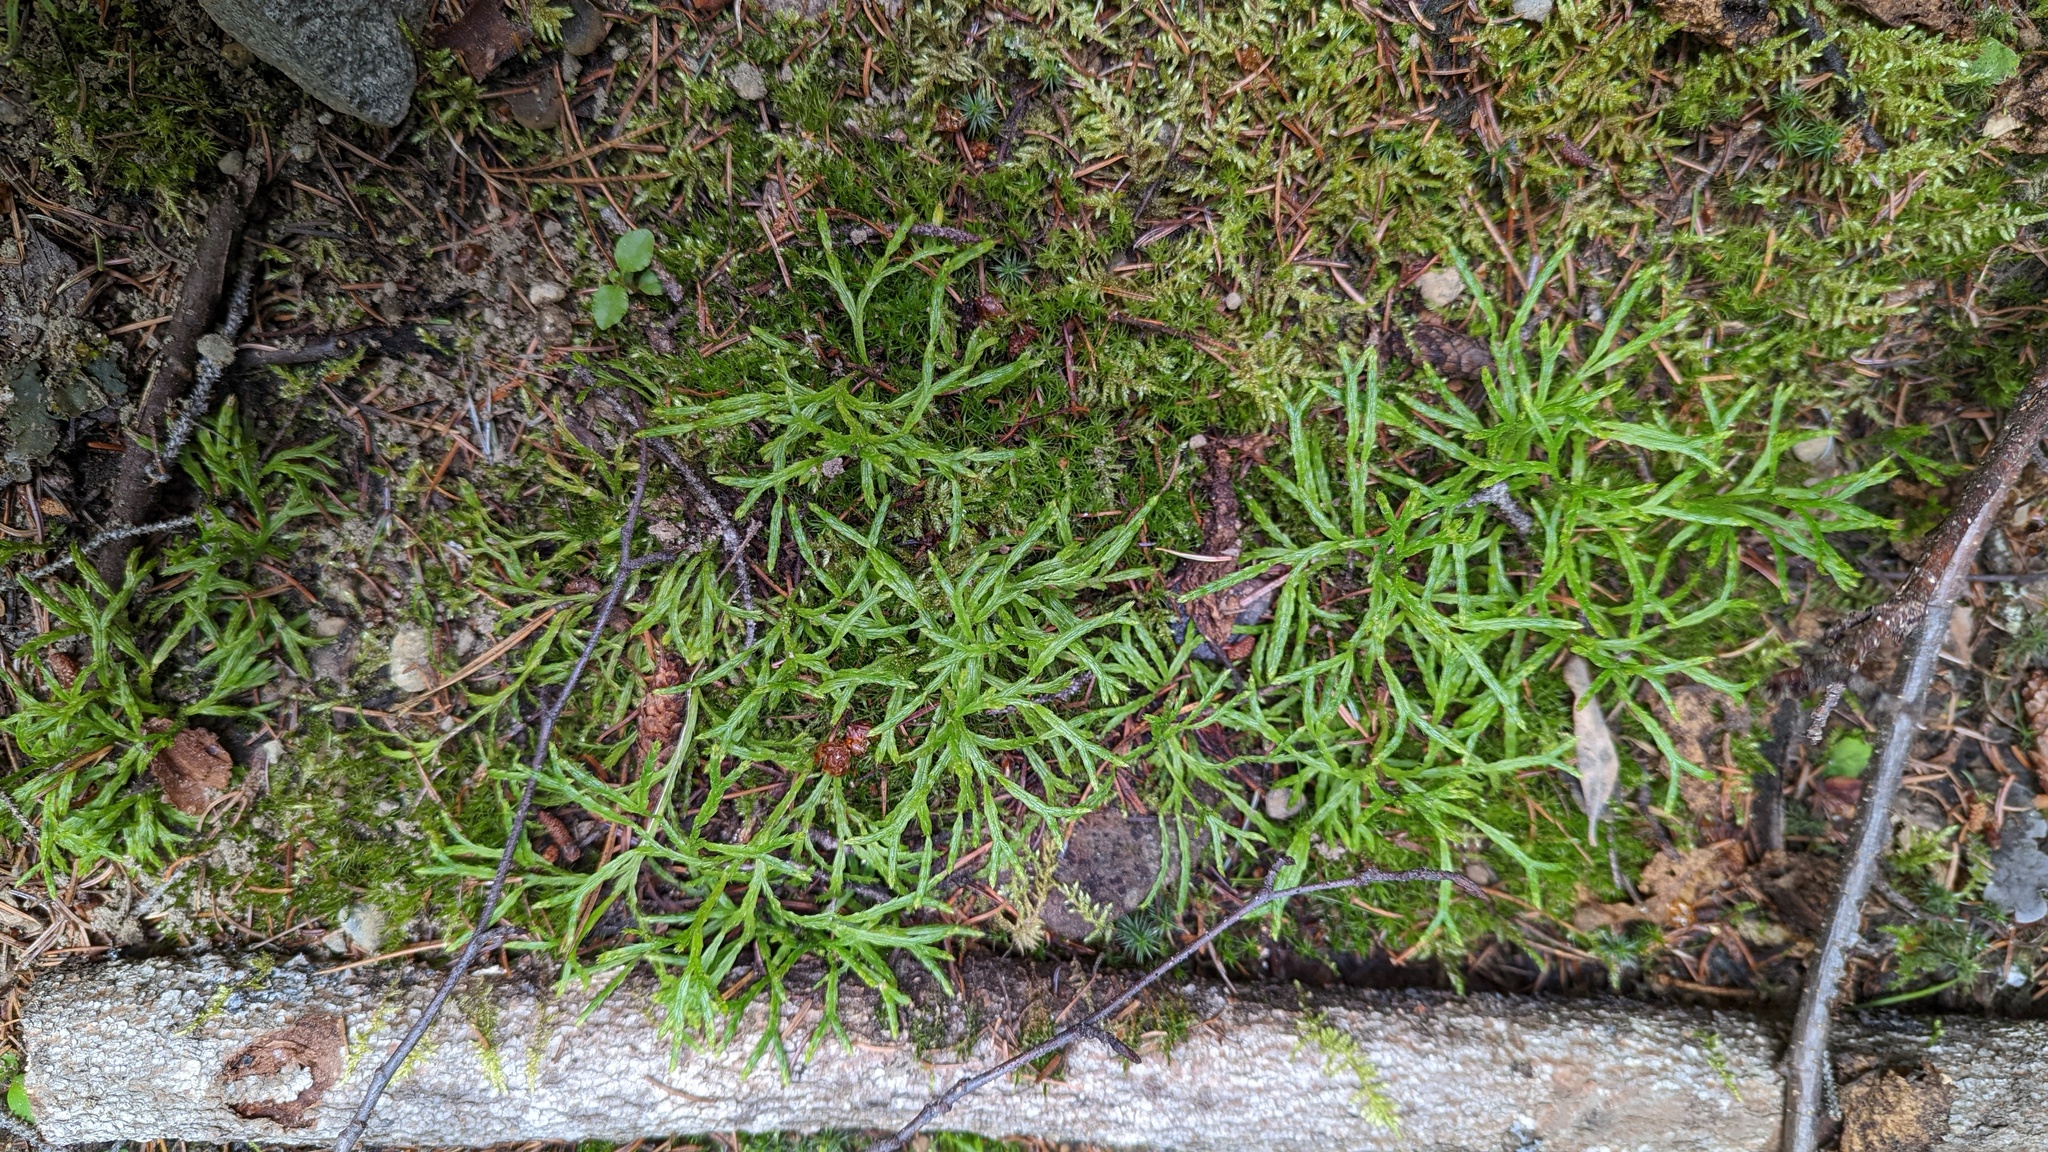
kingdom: Plantae
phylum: Tracheophyta
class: Lycopodiopsida
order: Lycopodiales
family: Lycopodiaceae
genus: Diphasiastrum
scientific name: Diphasiastrum complanatum
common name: Northern running-pine
